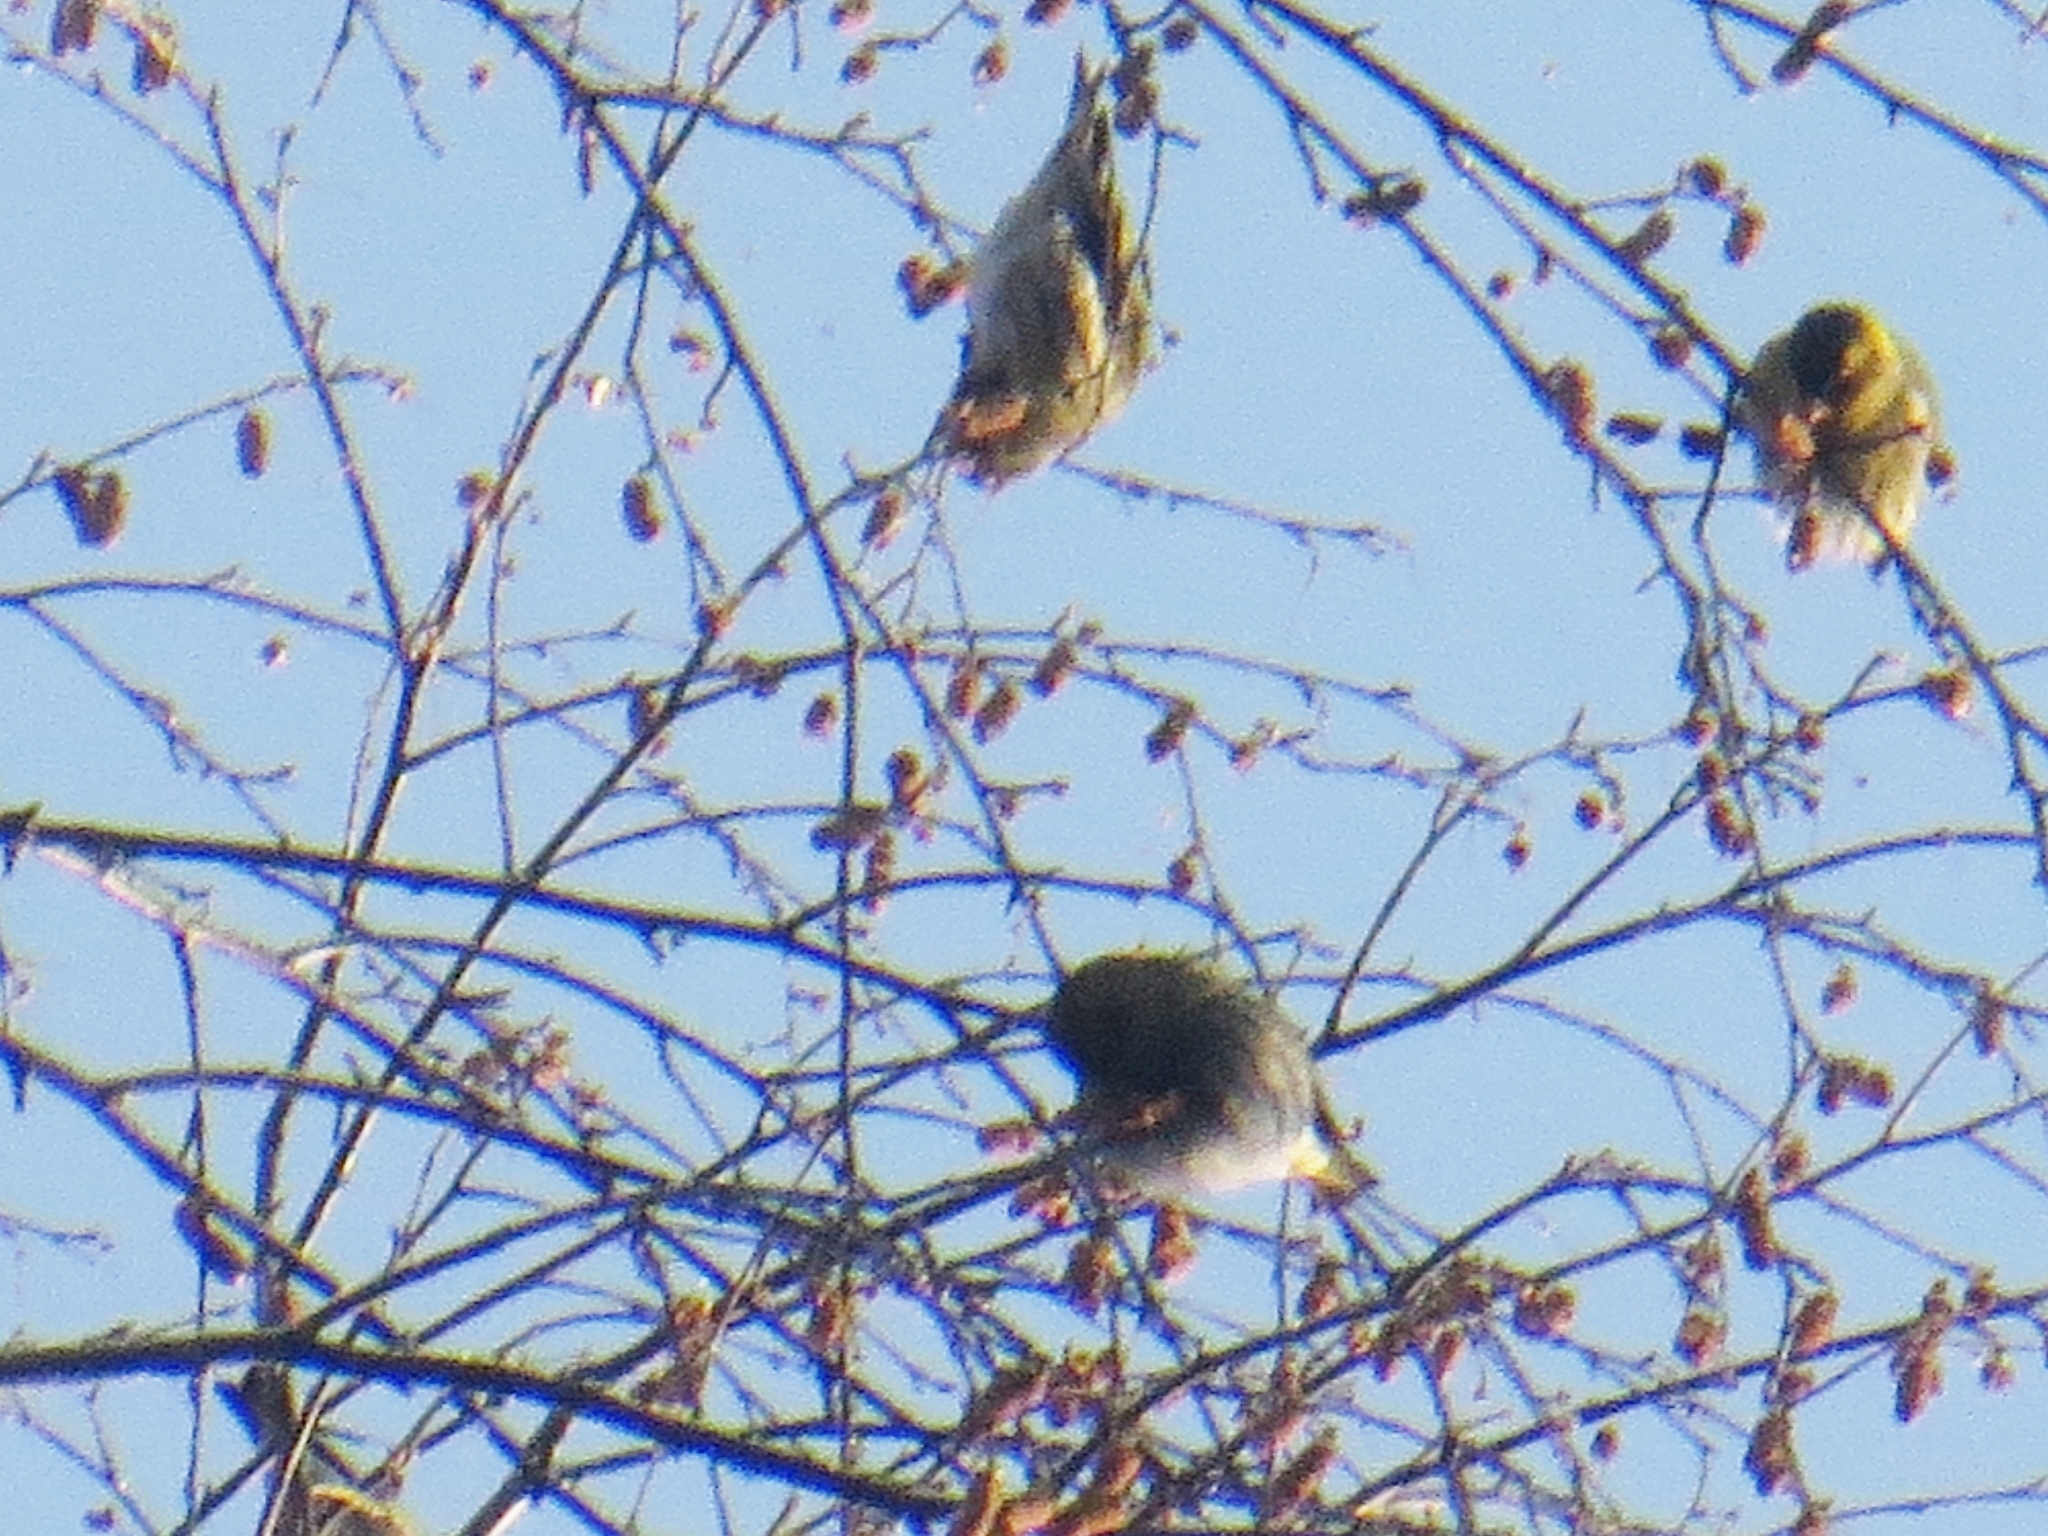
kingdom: Animalia
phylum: Chordata
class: Aves
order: Passeriformes
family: Fringillidae
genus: Spinus
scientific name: Spinus spinus
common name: Eurasian siskin
